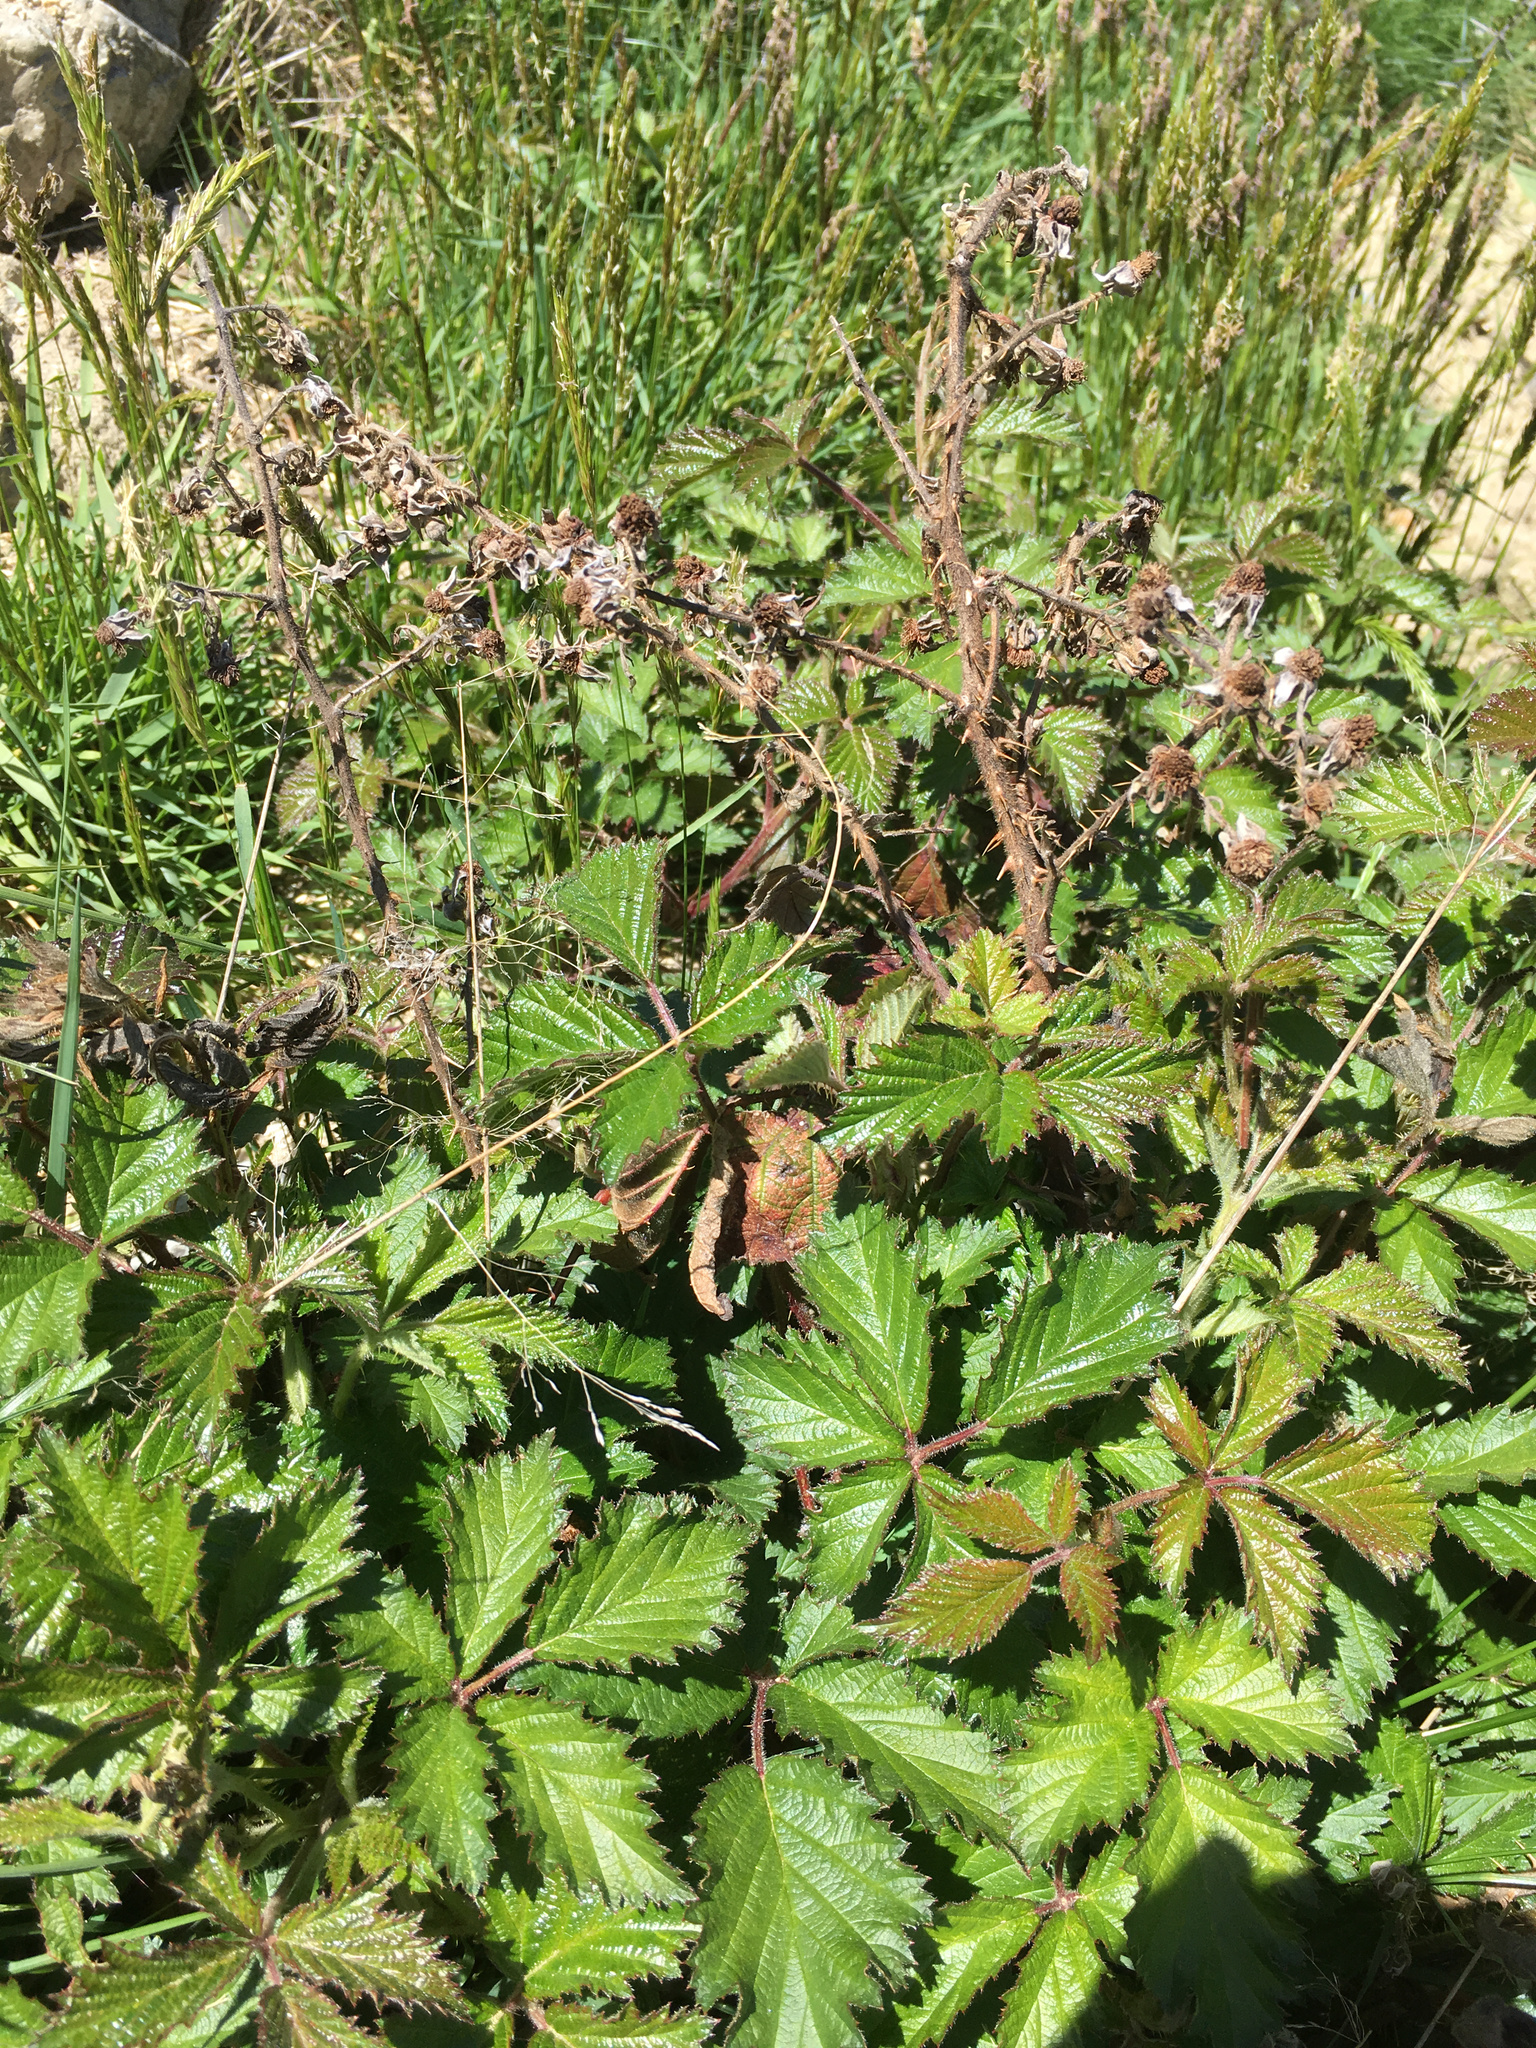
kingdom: Plantae
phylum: Tracheophyta
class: Magnoliopsida
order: Rosales
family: Rosaceae
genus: Rubus
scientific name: Rubus echinatus
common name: Echinate bramble
